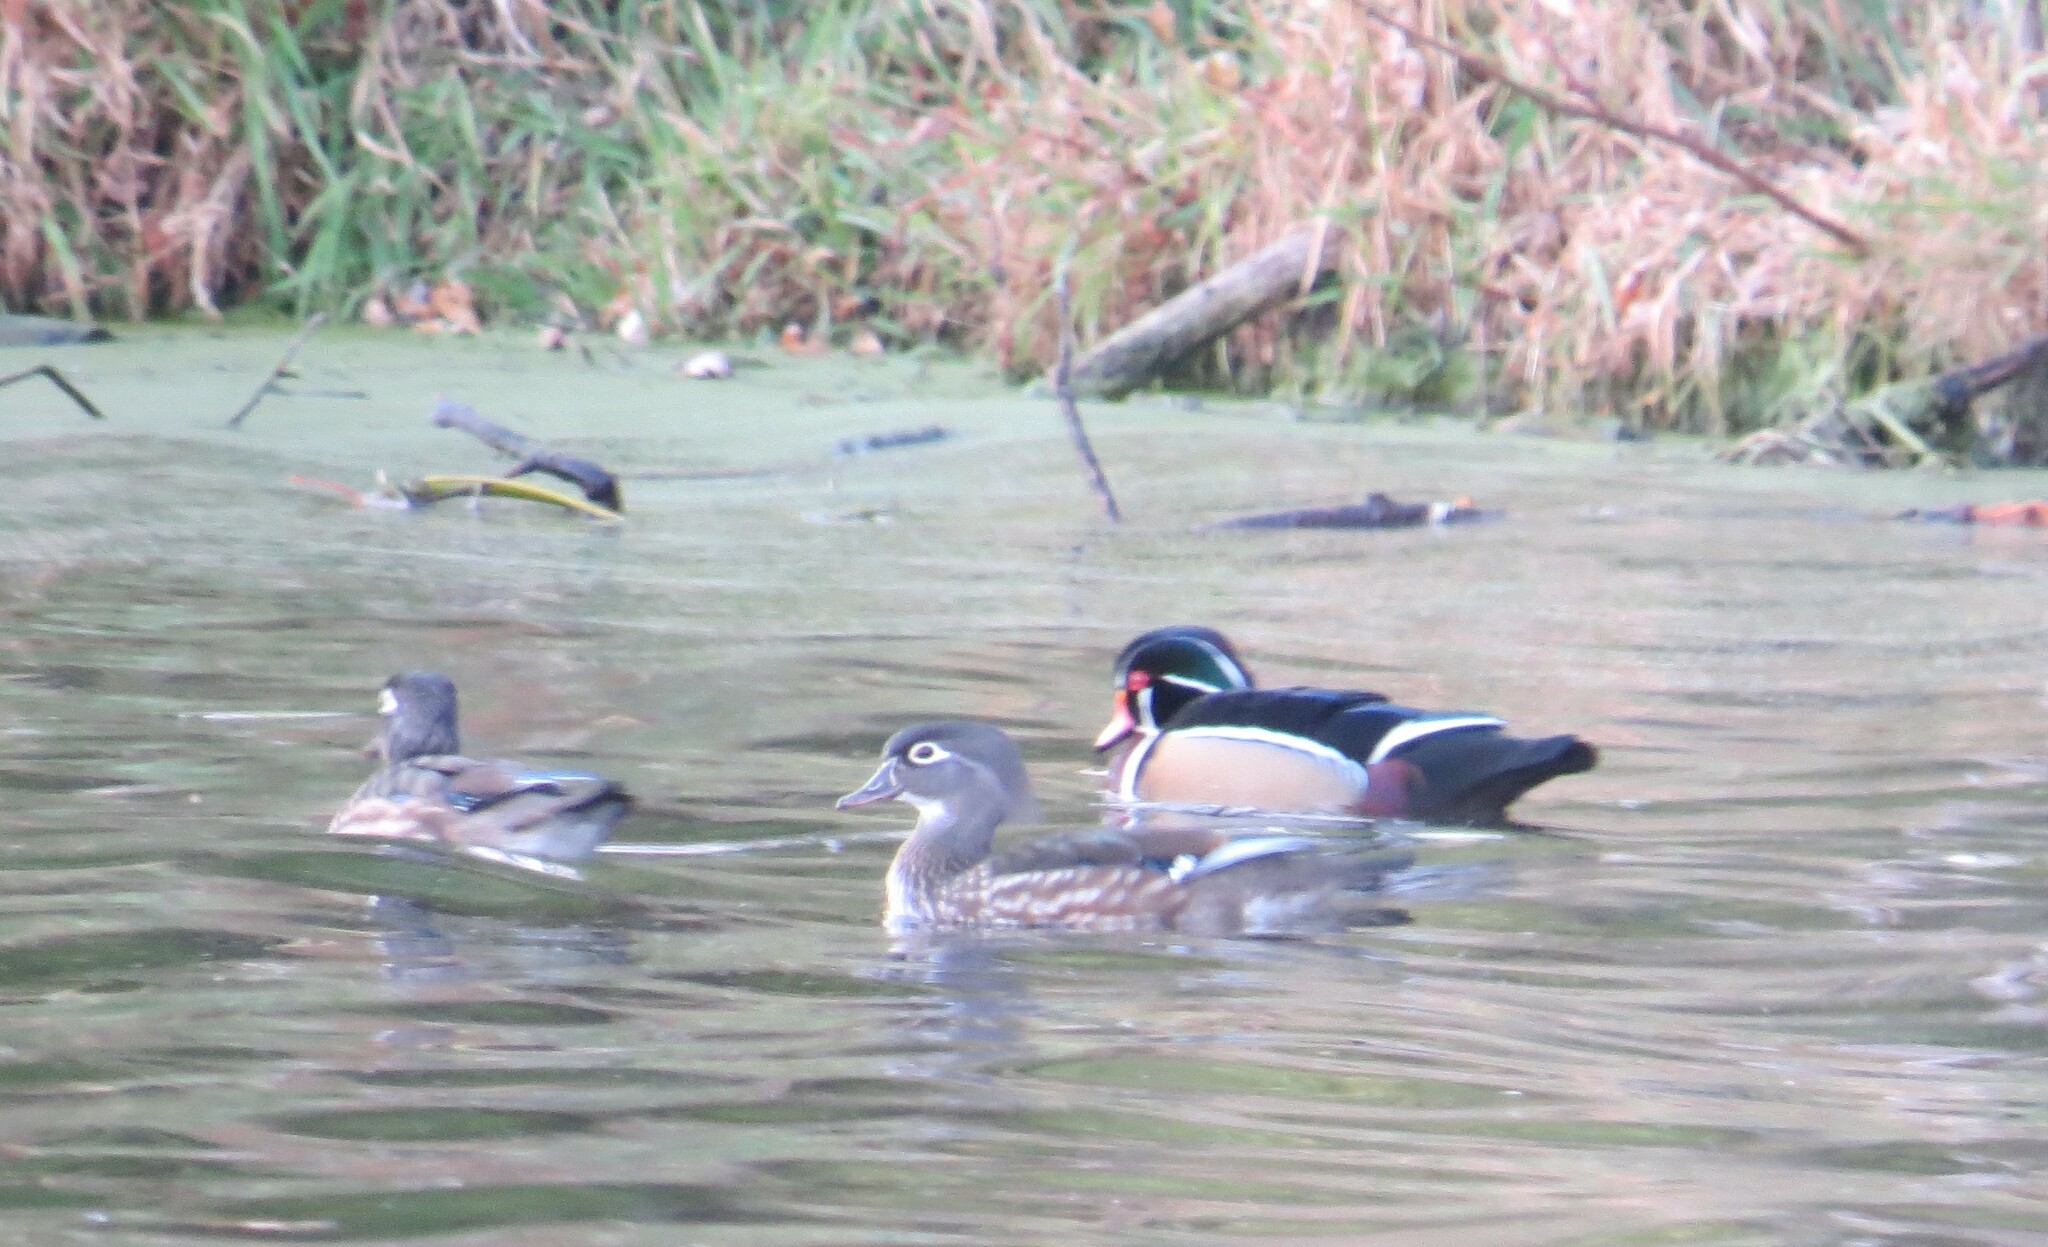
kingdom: Animalia
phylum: Chordata
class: Aves
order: Anseriformes
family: Anatidae
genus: Aix
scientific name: Aix sponsa
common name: Wood duck
